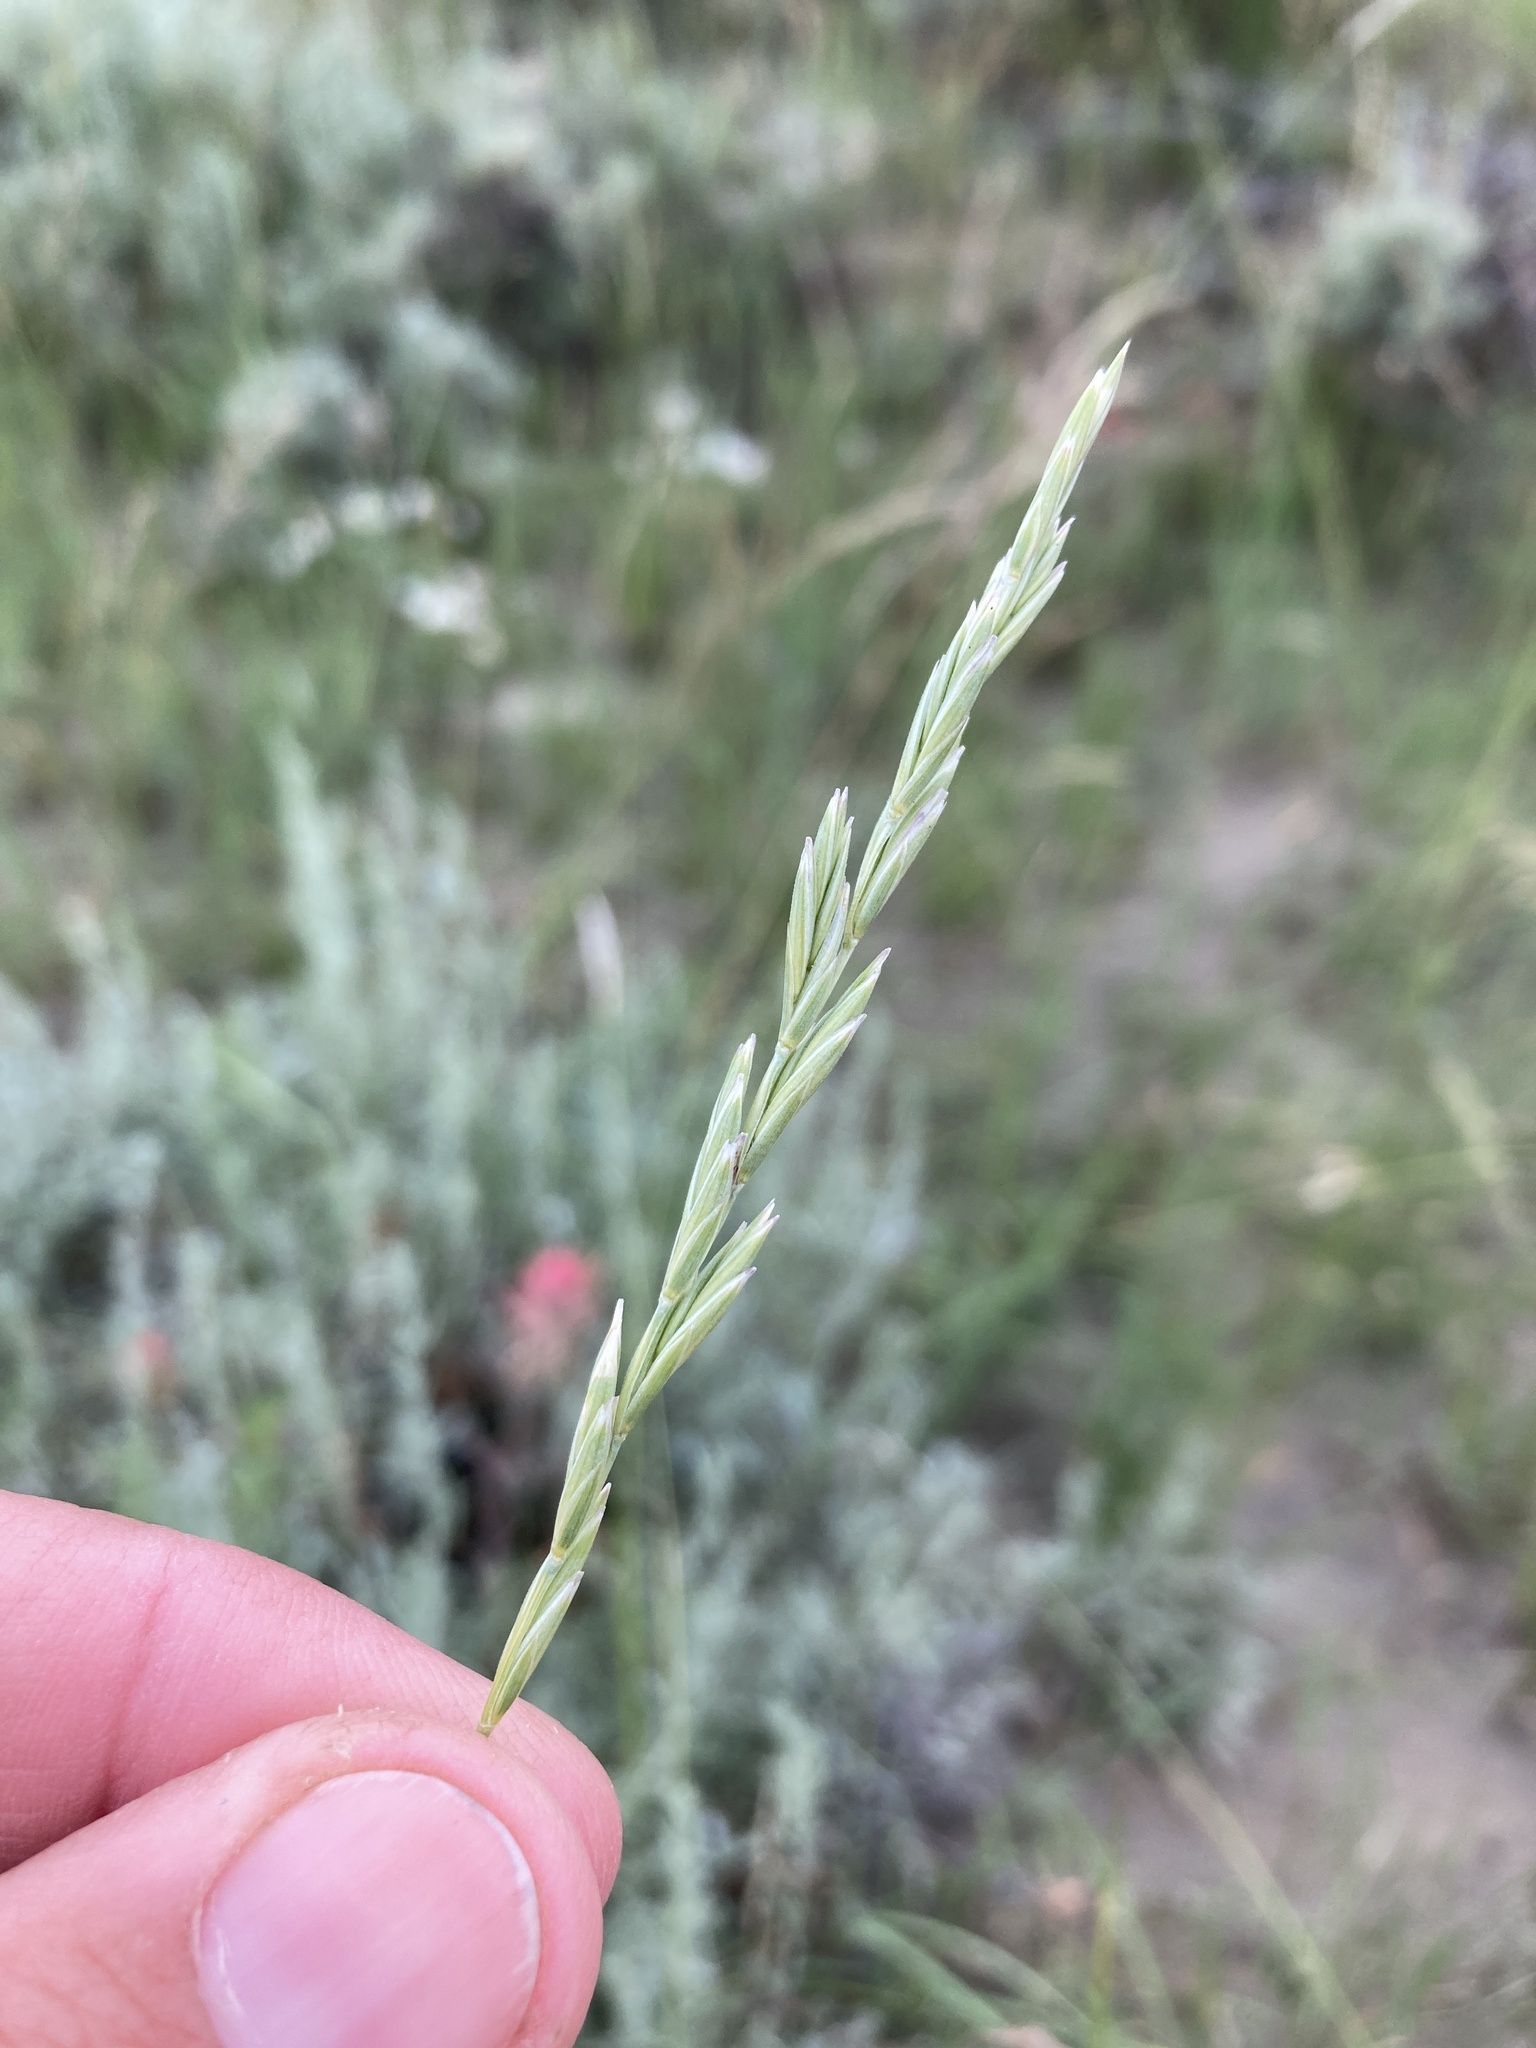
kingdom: Plantae
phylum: Tracheophyta
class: Liliopsida
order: Poales
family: Poaceae
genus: Elymus
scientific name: Elymus lanceolatus
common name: Thick-spike wheatgrass
